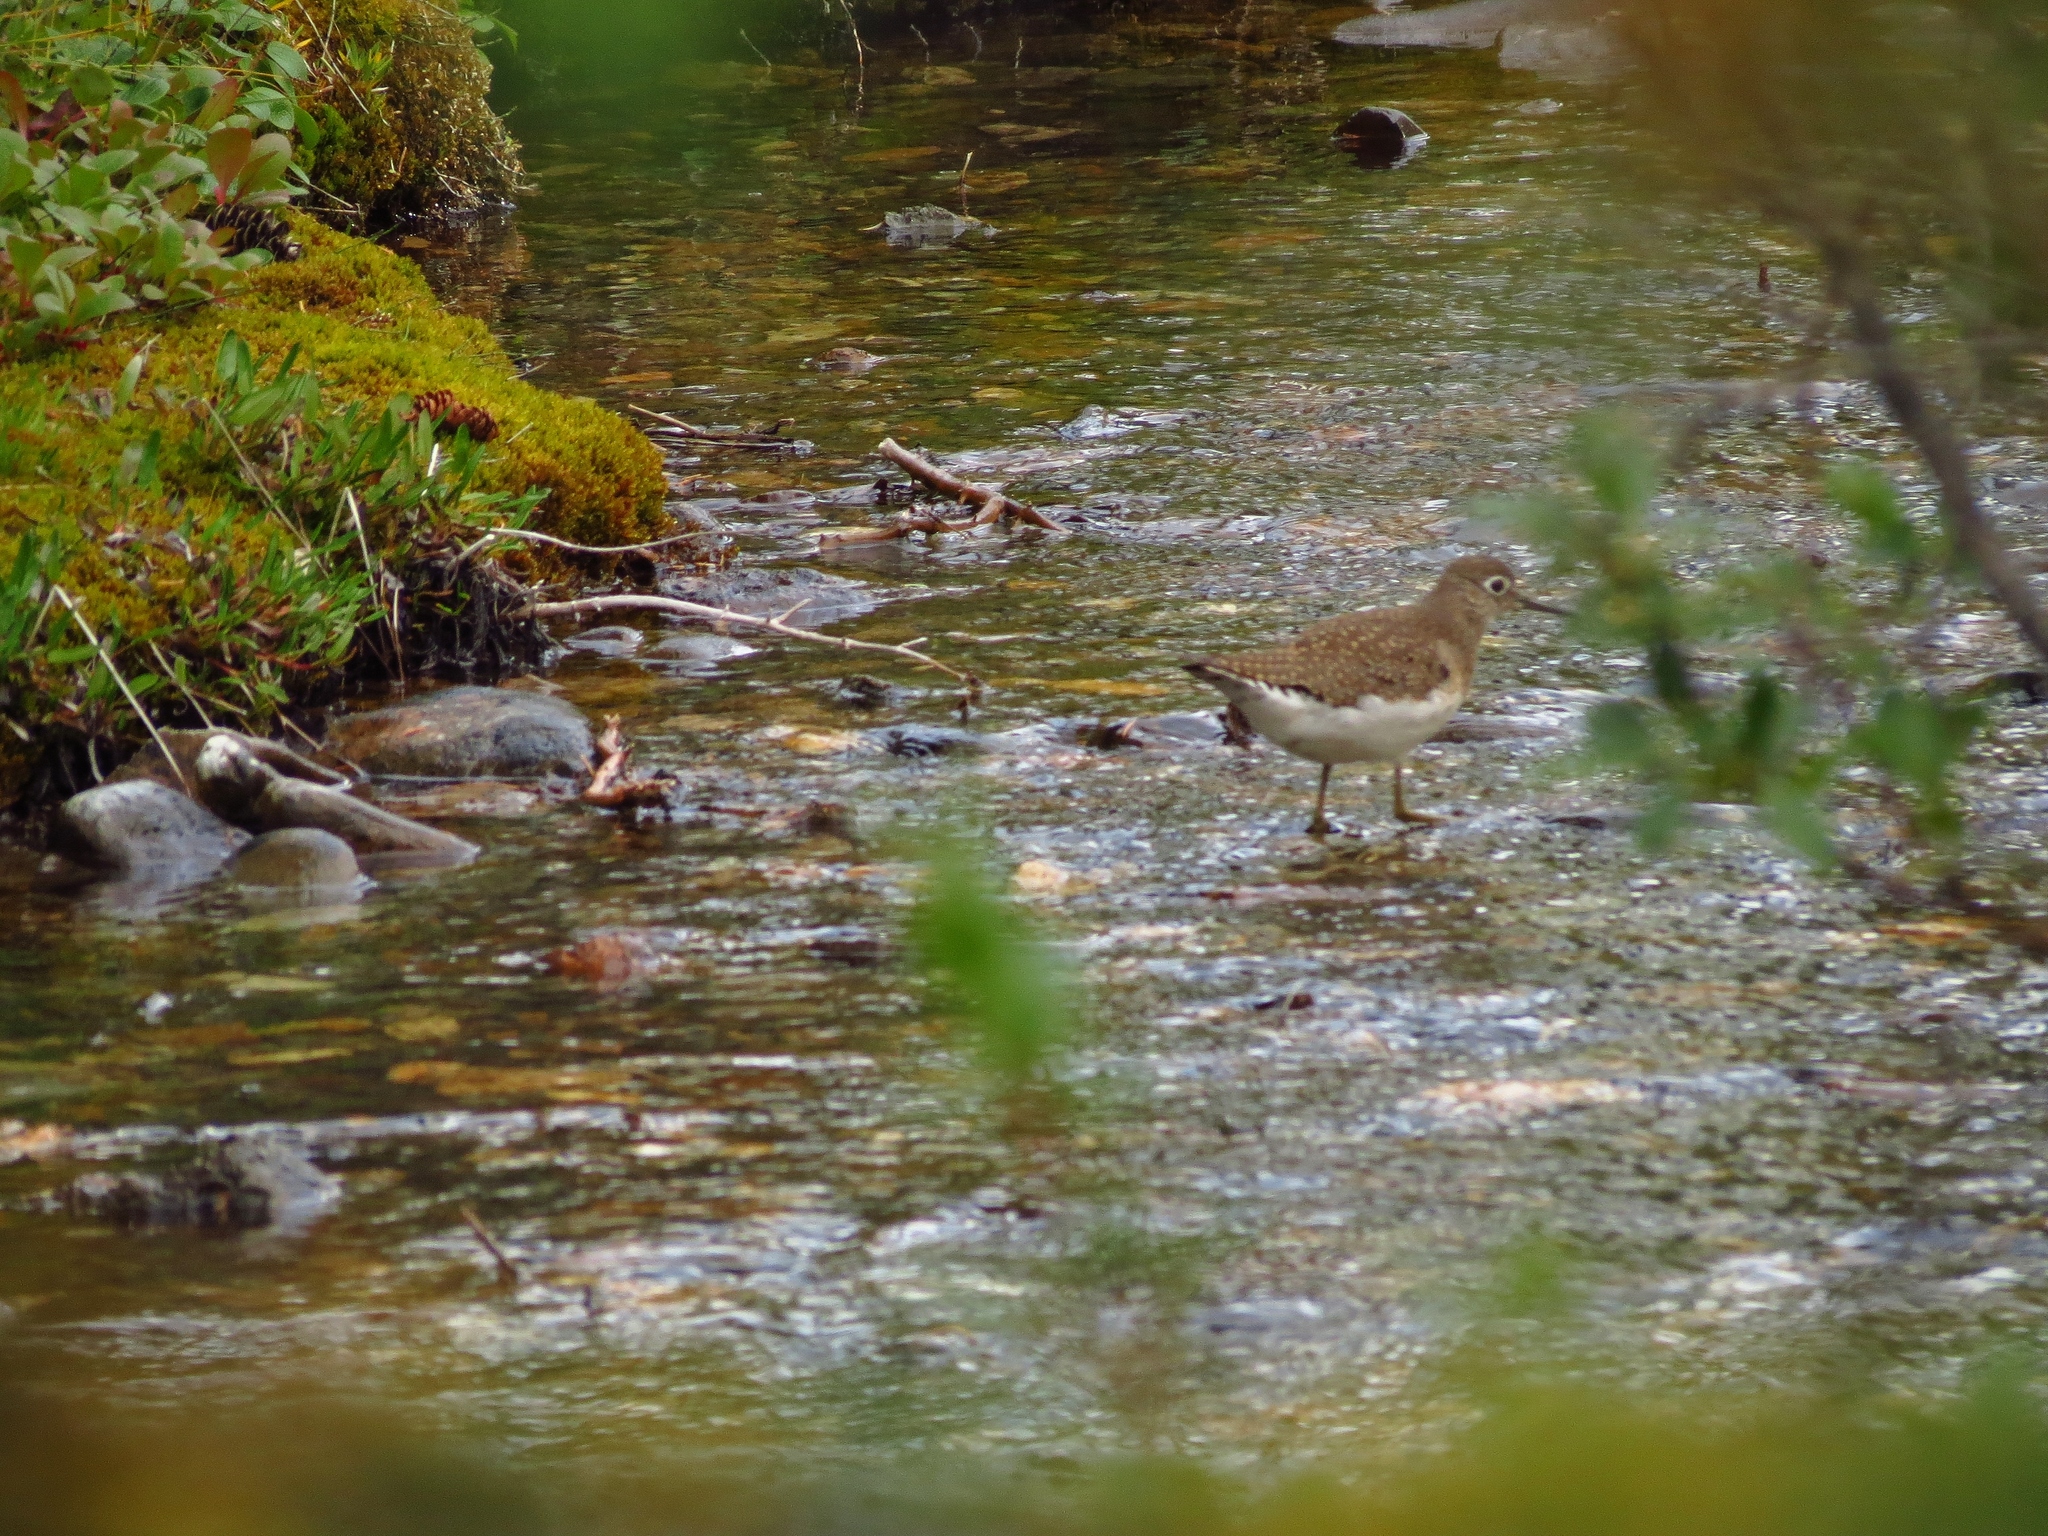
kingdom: Animalia
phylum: Chordata
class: Aves
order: Charadriiformes
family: Scolopacidae
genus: Tringa
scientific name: Tringa solitaria
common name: Solitary sandpiper
